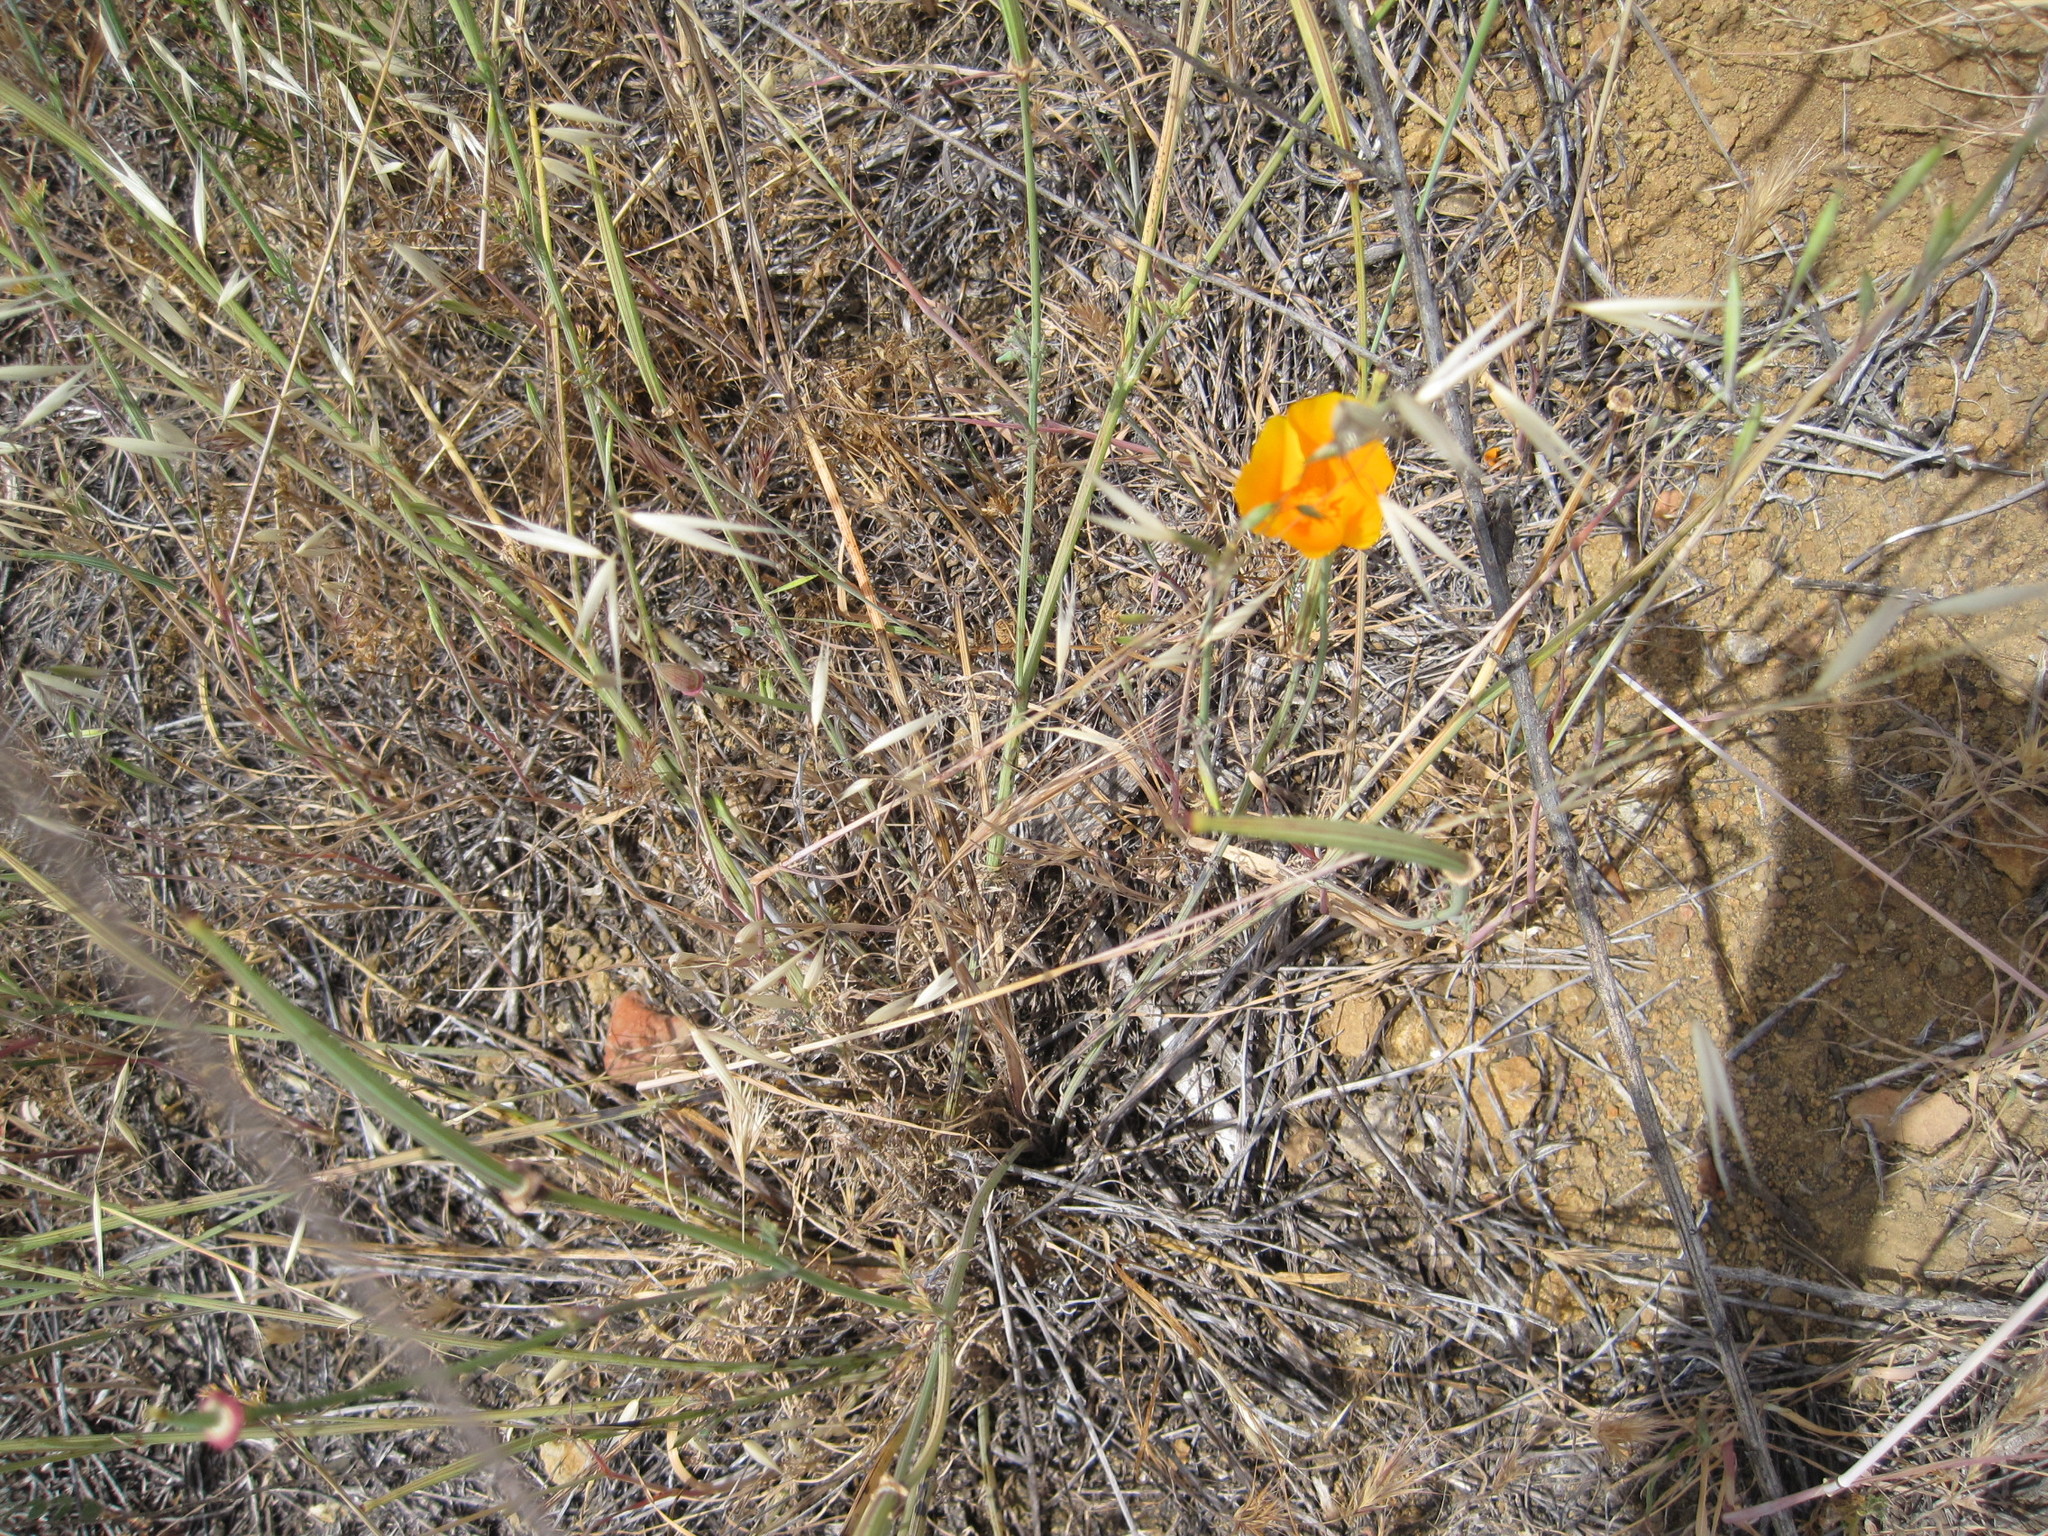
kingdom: Plantae
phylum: Tracheophyta
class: Magnoliopsida
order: Ranunculales
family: Papaveraceae
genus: Eschscholzia
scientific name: Eschscholzia californica
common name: California poppy
